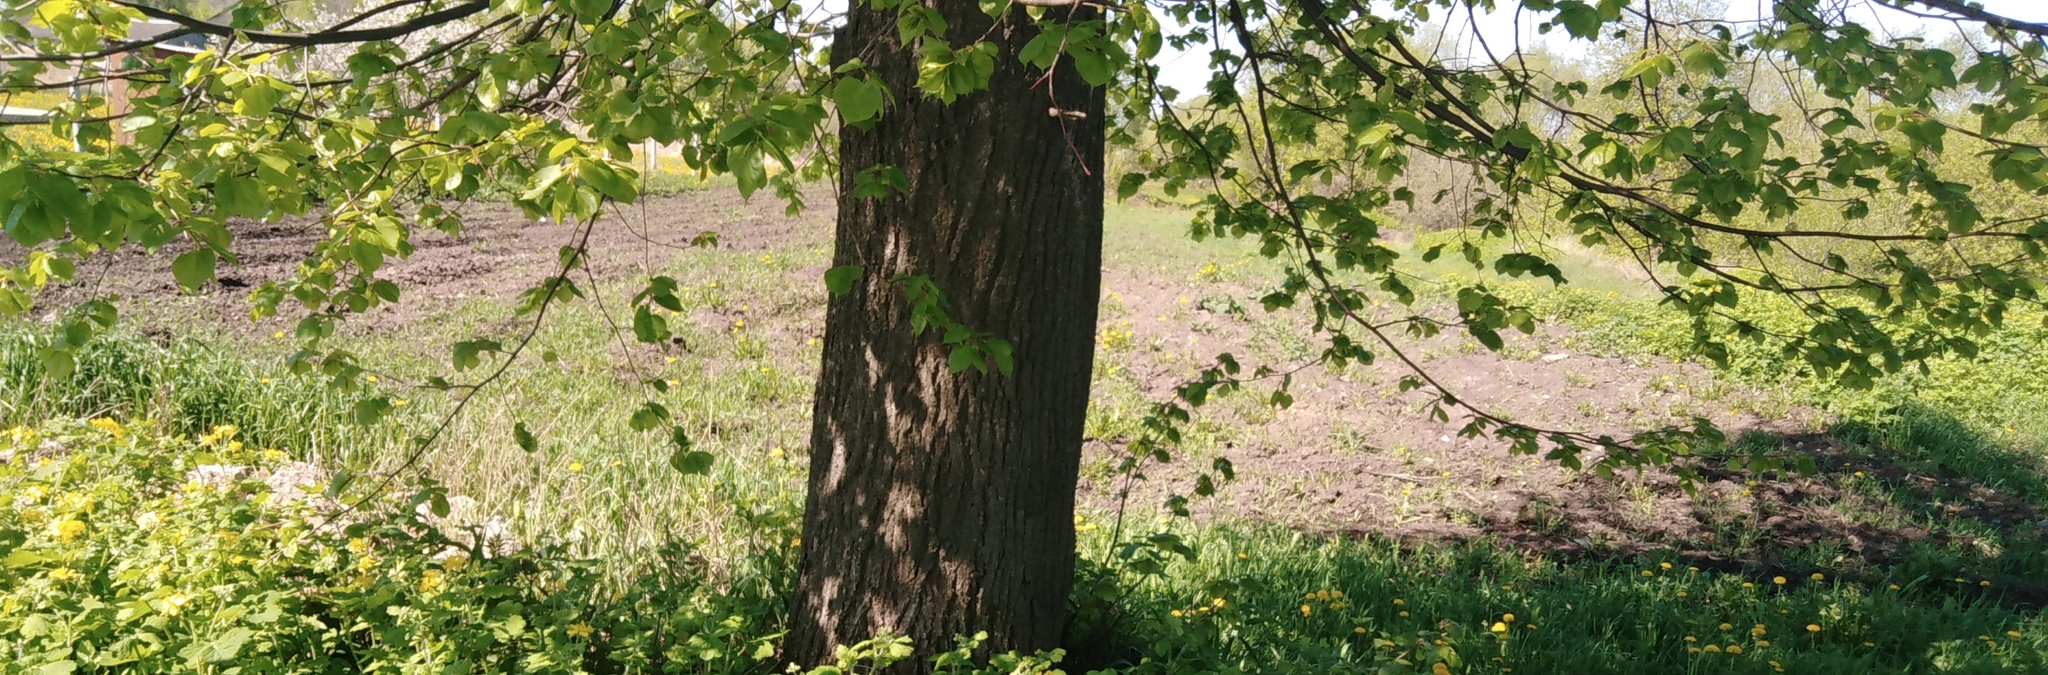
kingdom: Plantae
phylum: Tracheophyta
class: Magnoliopsida
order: Malvales
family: Malvaceae
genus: Tilia
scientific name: Tilia cordata
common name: Small-leaved lime
